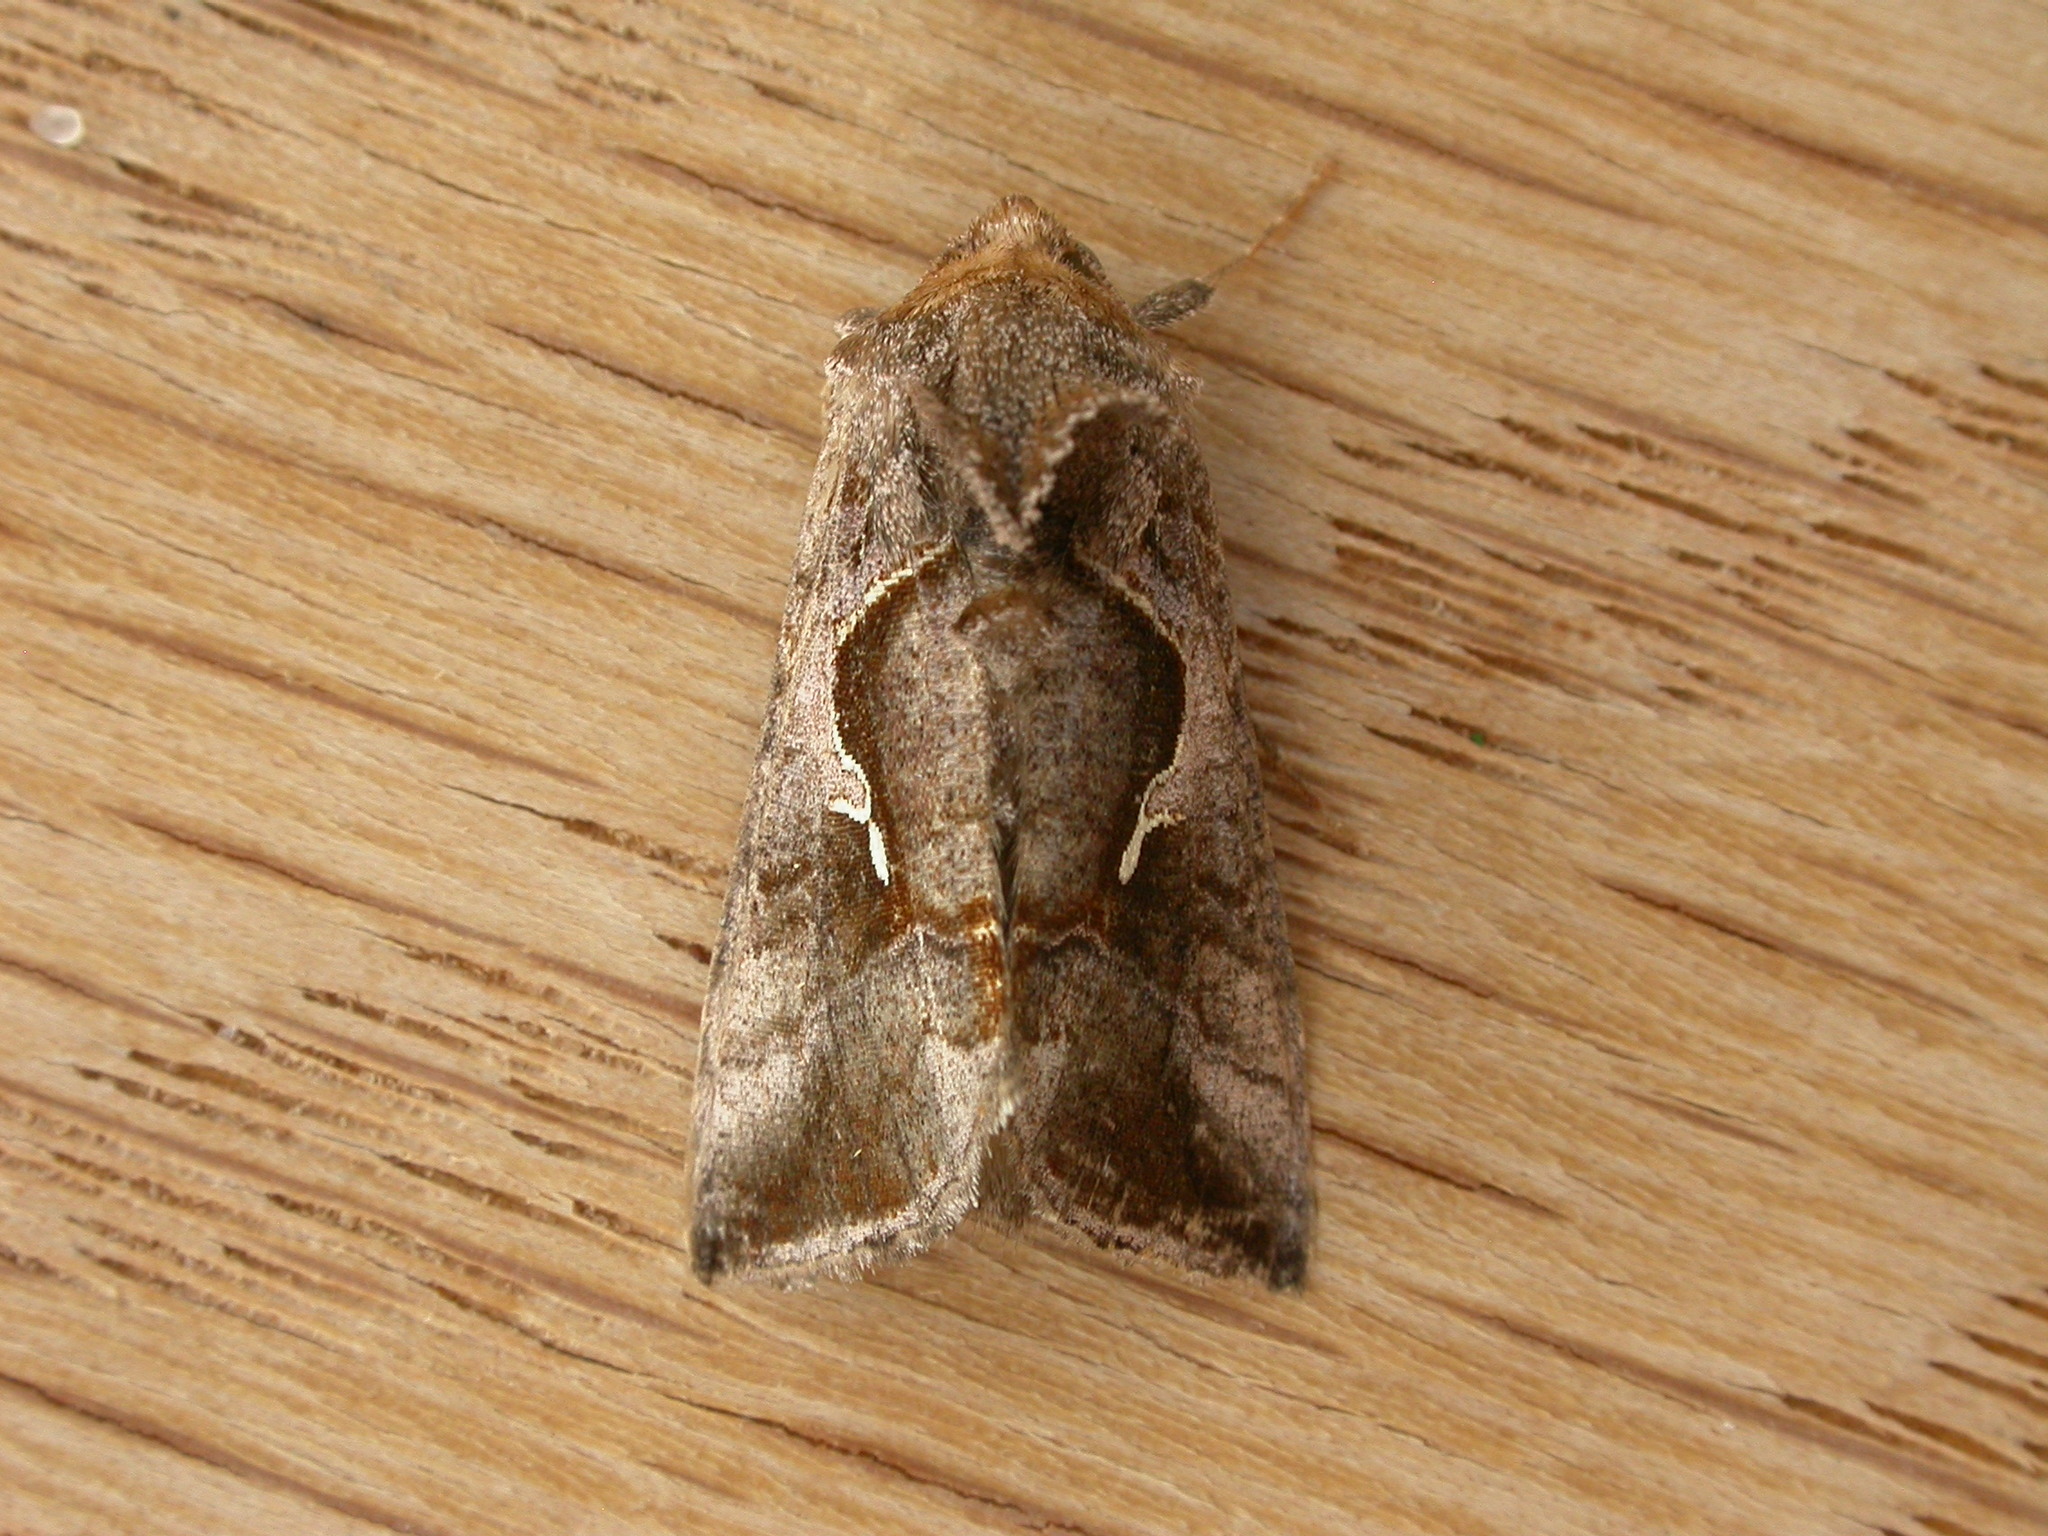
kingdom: Animalia
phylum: Arthropoda
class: Insecta
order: Lepidoptera
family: Noctuidae
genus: Chrysodeixis
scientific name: Chrysodeixis subsidens
